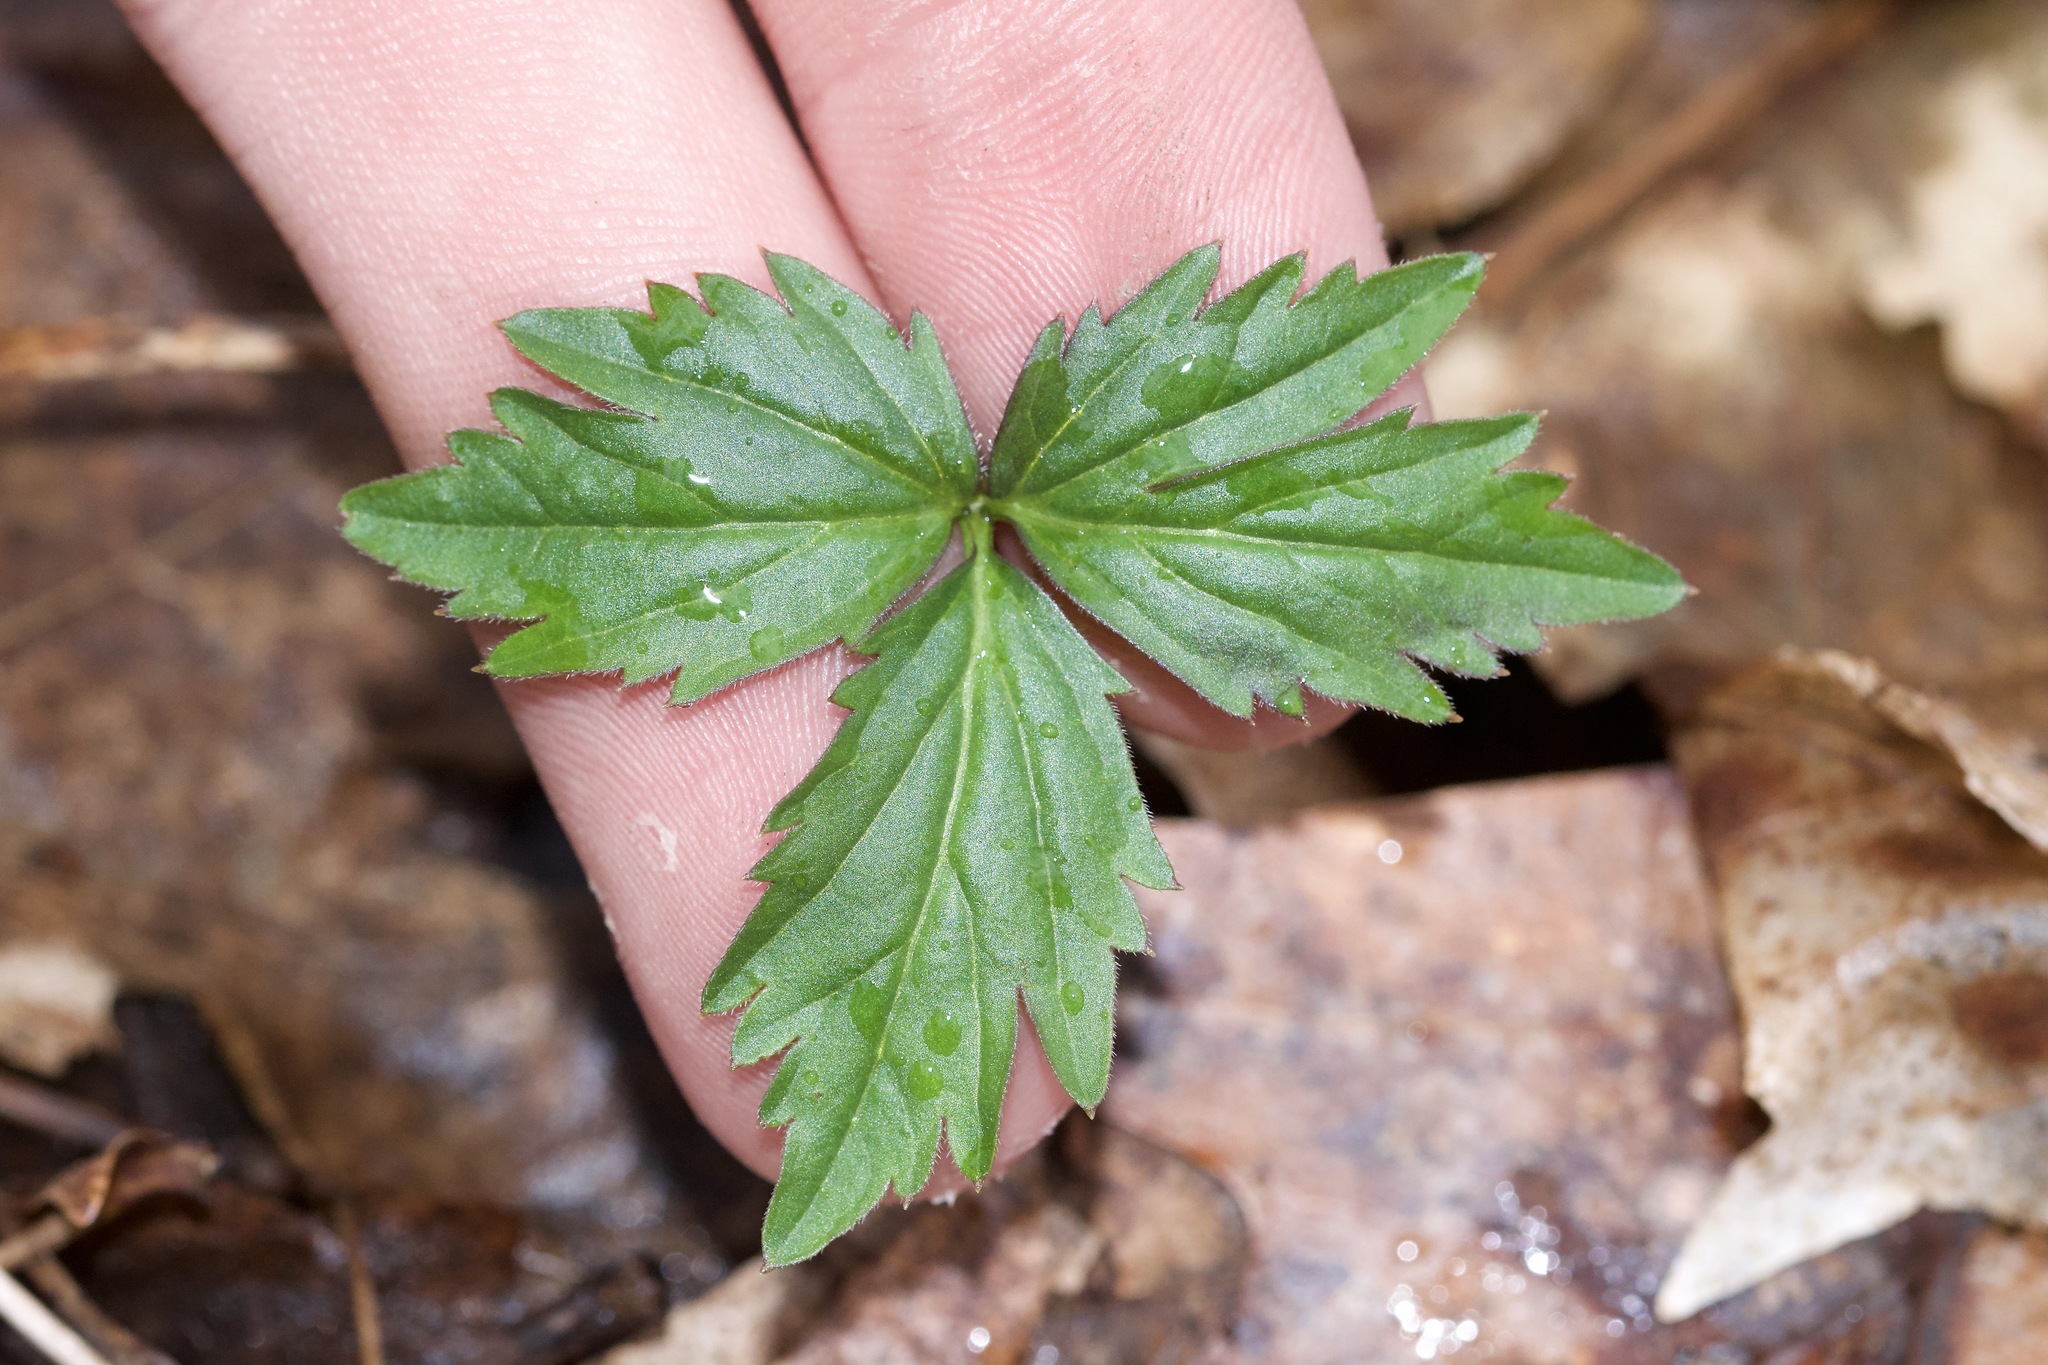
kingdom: Plantae
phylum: Tracheophyta
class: Magnoliopsida
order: Brassicales
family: Brassicaceae
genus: Cardamine
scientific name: Cardamine diphylla
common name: Broad-leaved toothwort
